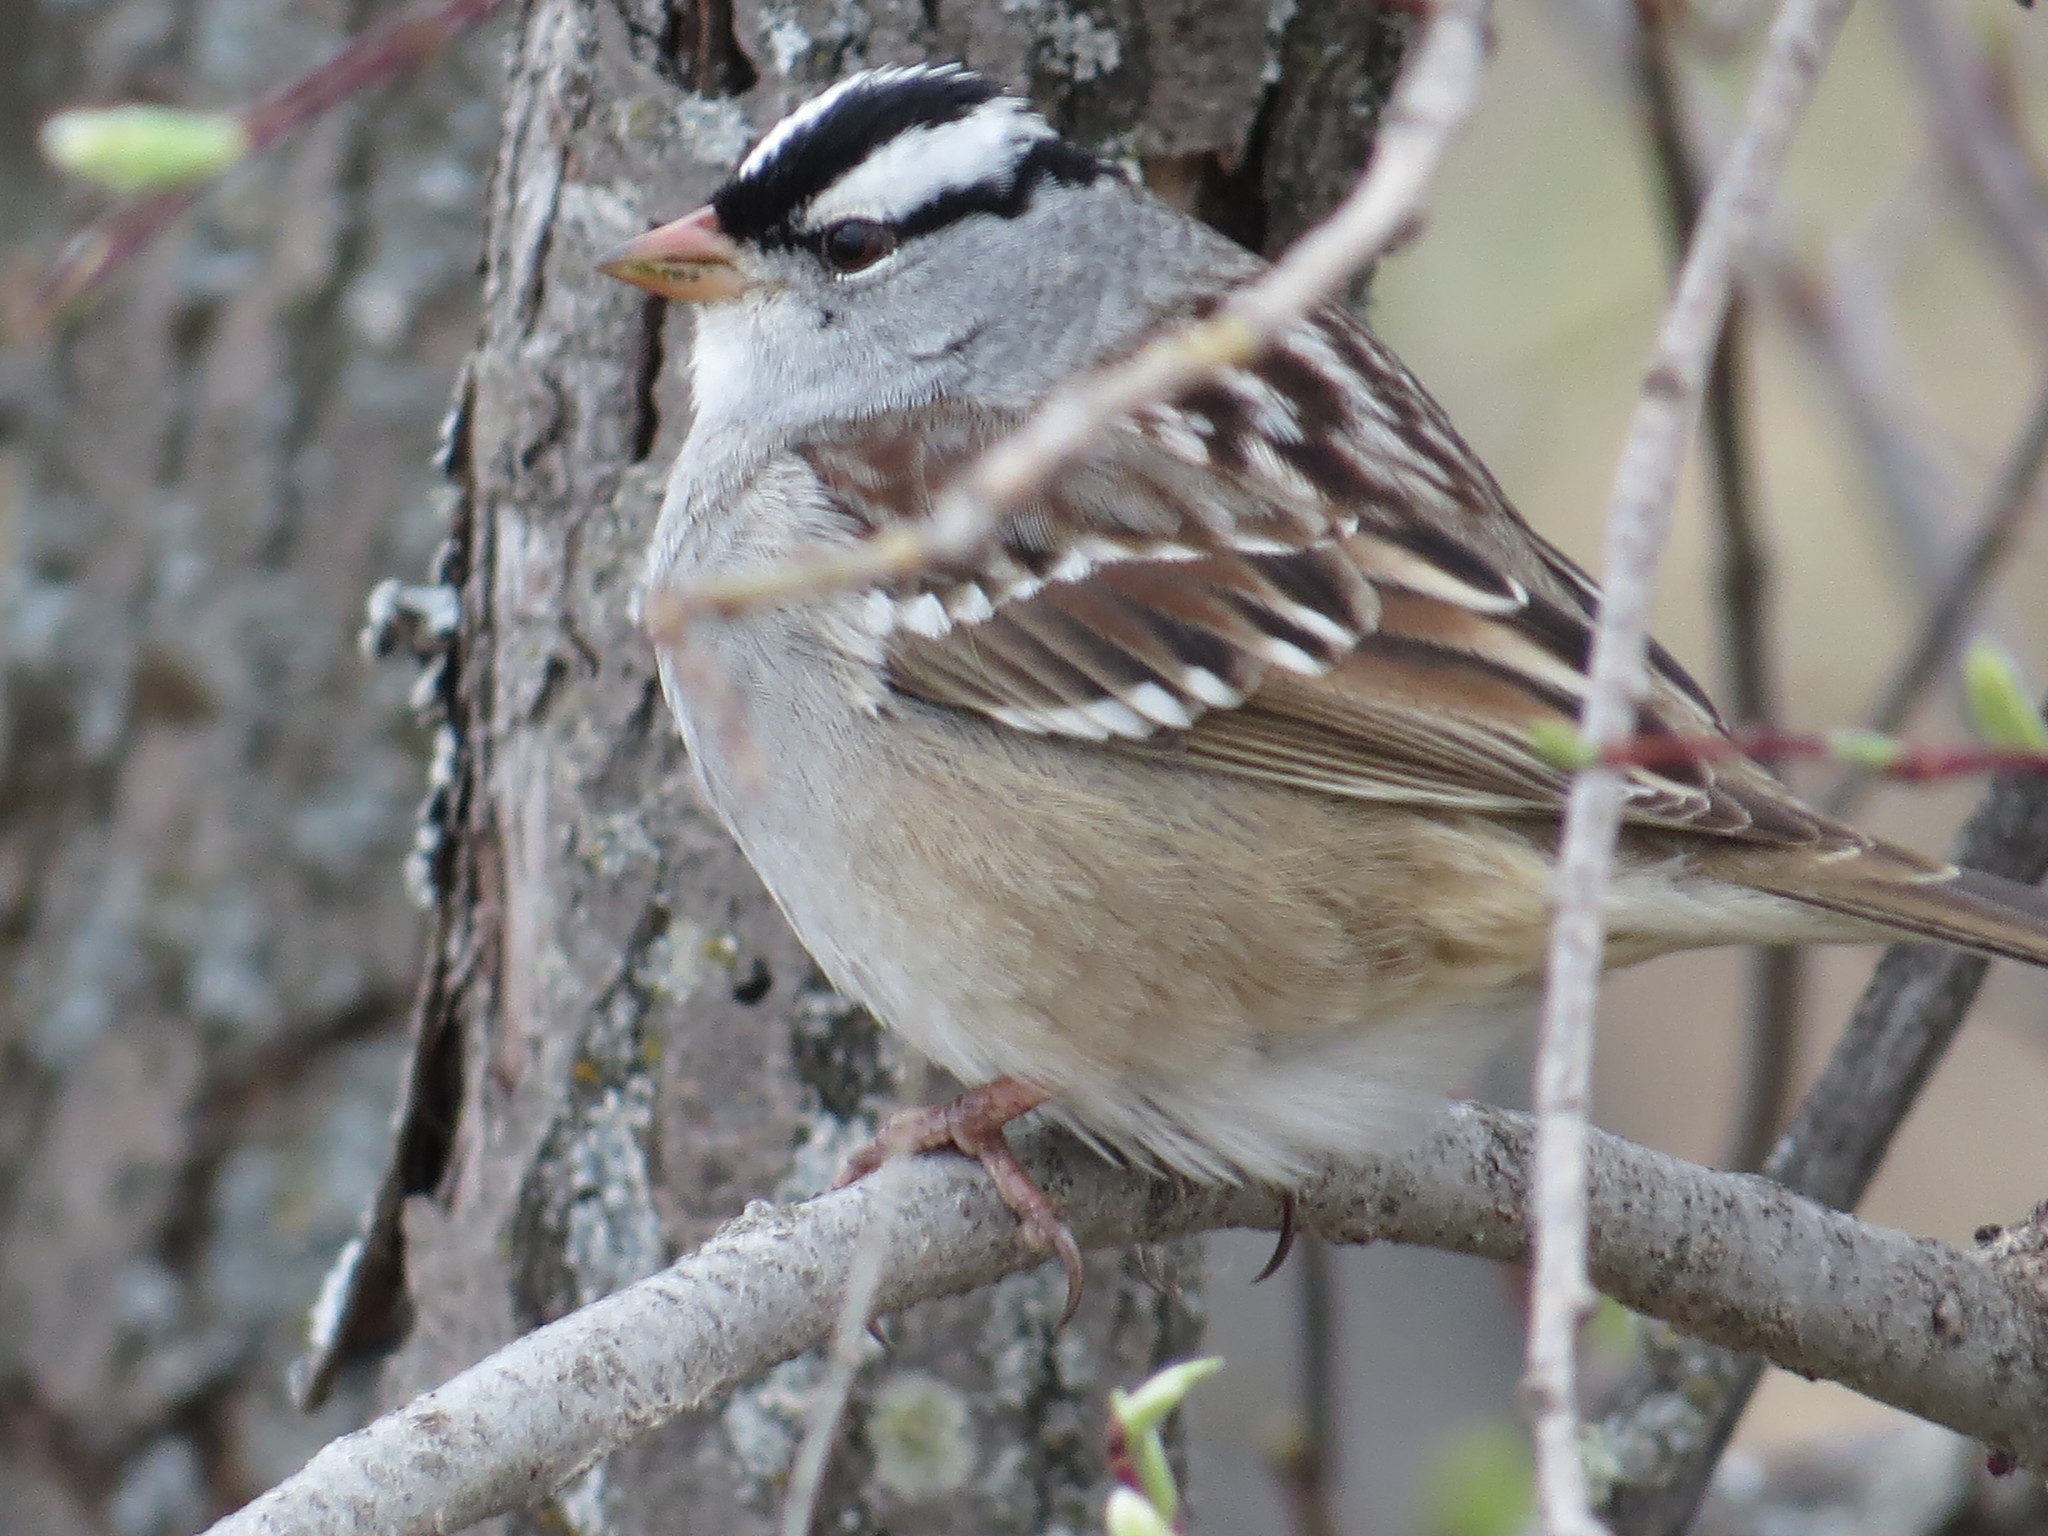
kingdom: Animalia
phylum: Chordata
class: Aves
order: Passeriformes
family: Passerellidae
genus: Zonotrichia
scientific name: Zonotrichia leucophrys
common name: White-crowned sparrow
